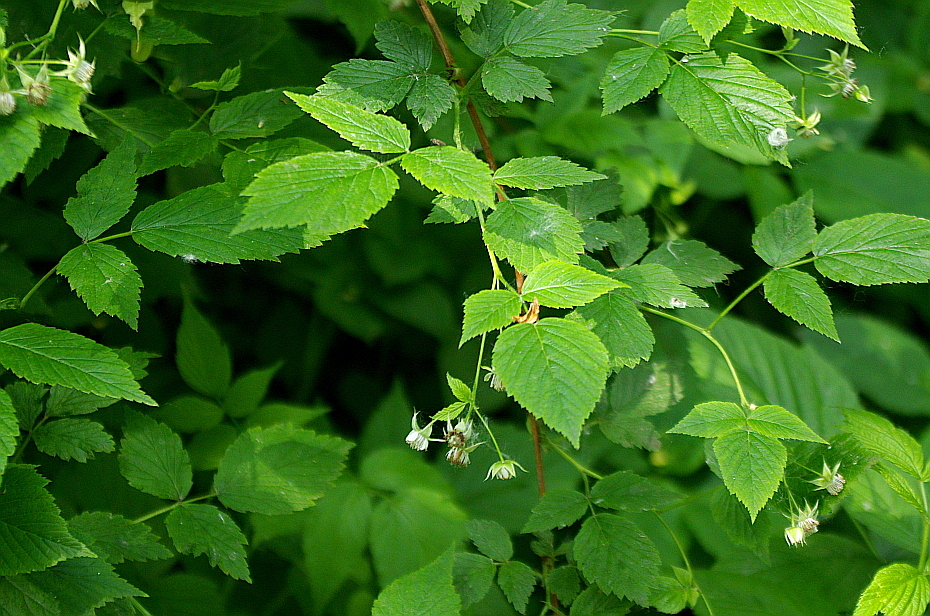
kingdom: Plantae
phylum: Tracheophyta
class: Magnoliopsida
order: Rosales
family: Rosaceae
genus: Rubus
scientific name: Rubus idaeus
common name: Raspberry
